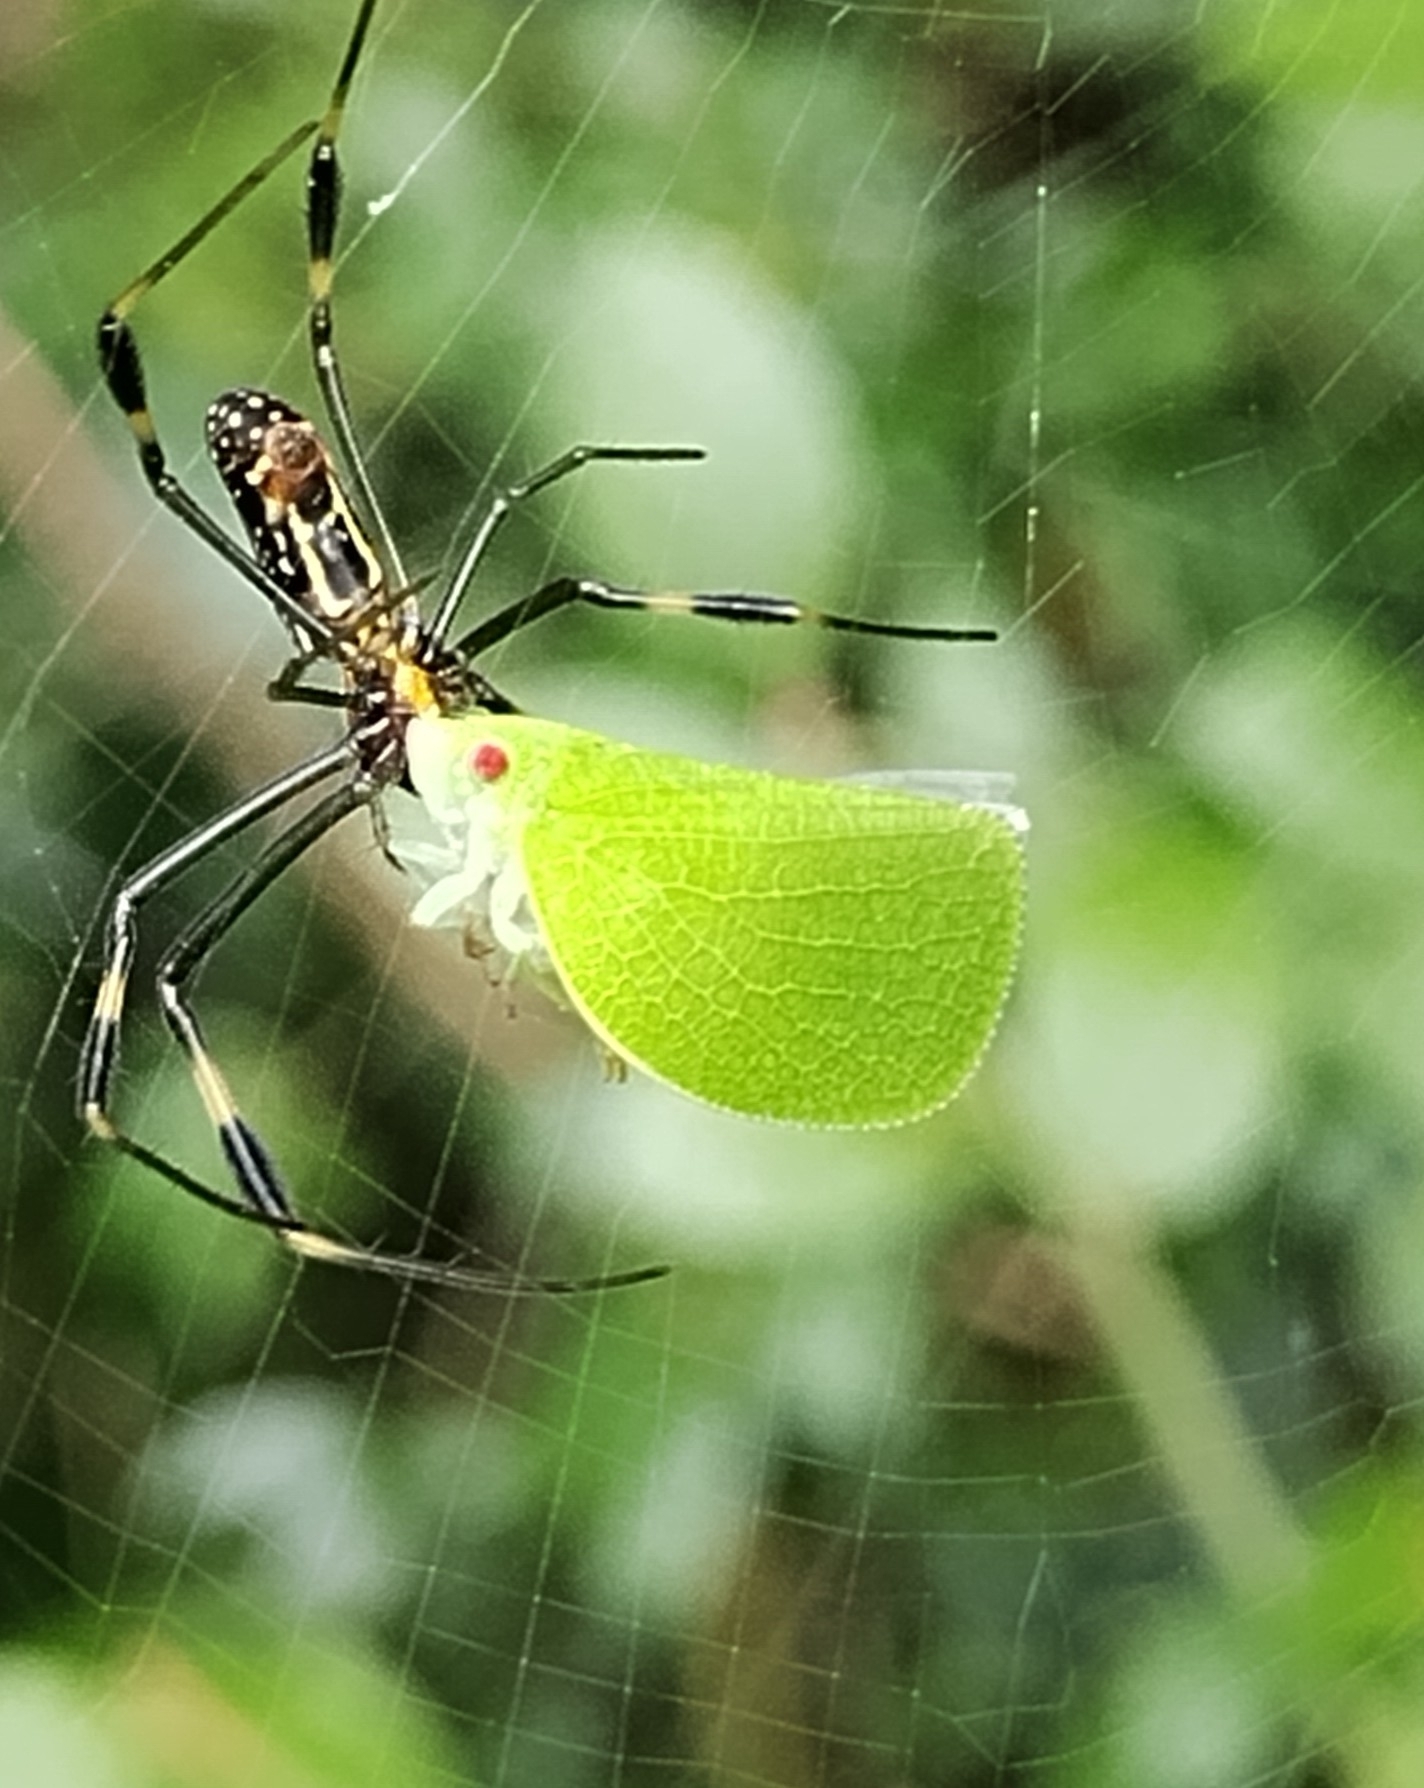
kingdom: Animalia
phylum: Arthropoda
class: Insecta
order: Hemiptera
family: Acanaloniidae
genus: Acanalonia
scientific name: Acanalonia conica
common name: Green cone-headed planthopper
